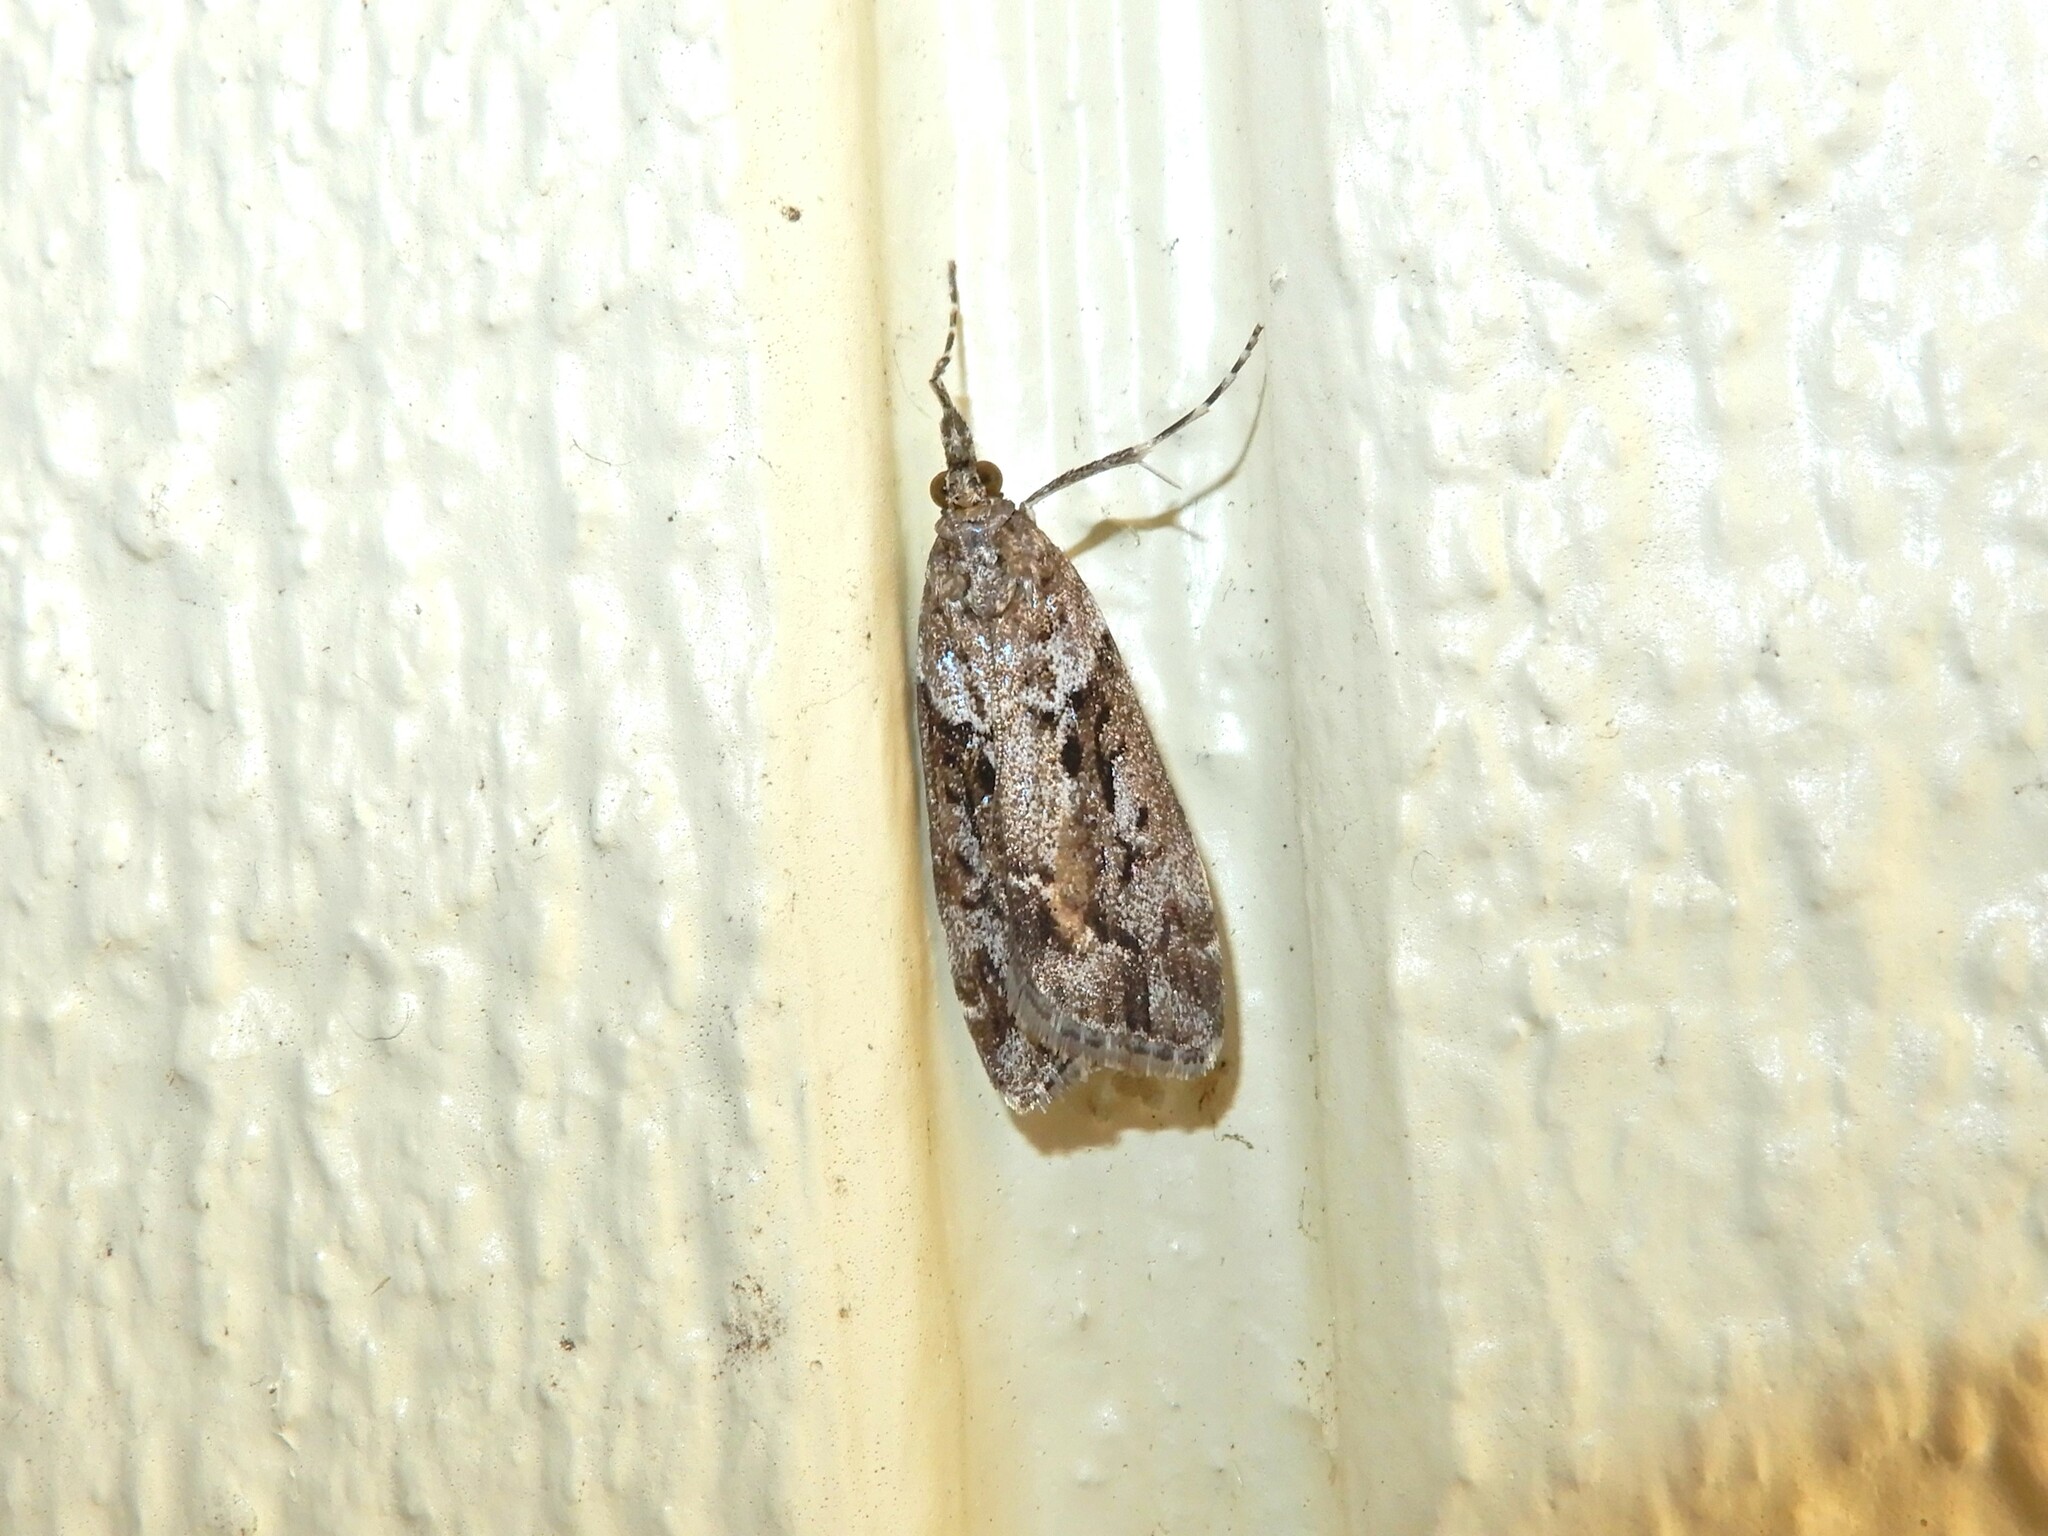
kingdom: Animalia
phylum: Arthropoda
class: Insecta
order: Lepidoptera
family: Crambidae
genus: Eudonia
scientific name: Eudonia submarginalis
